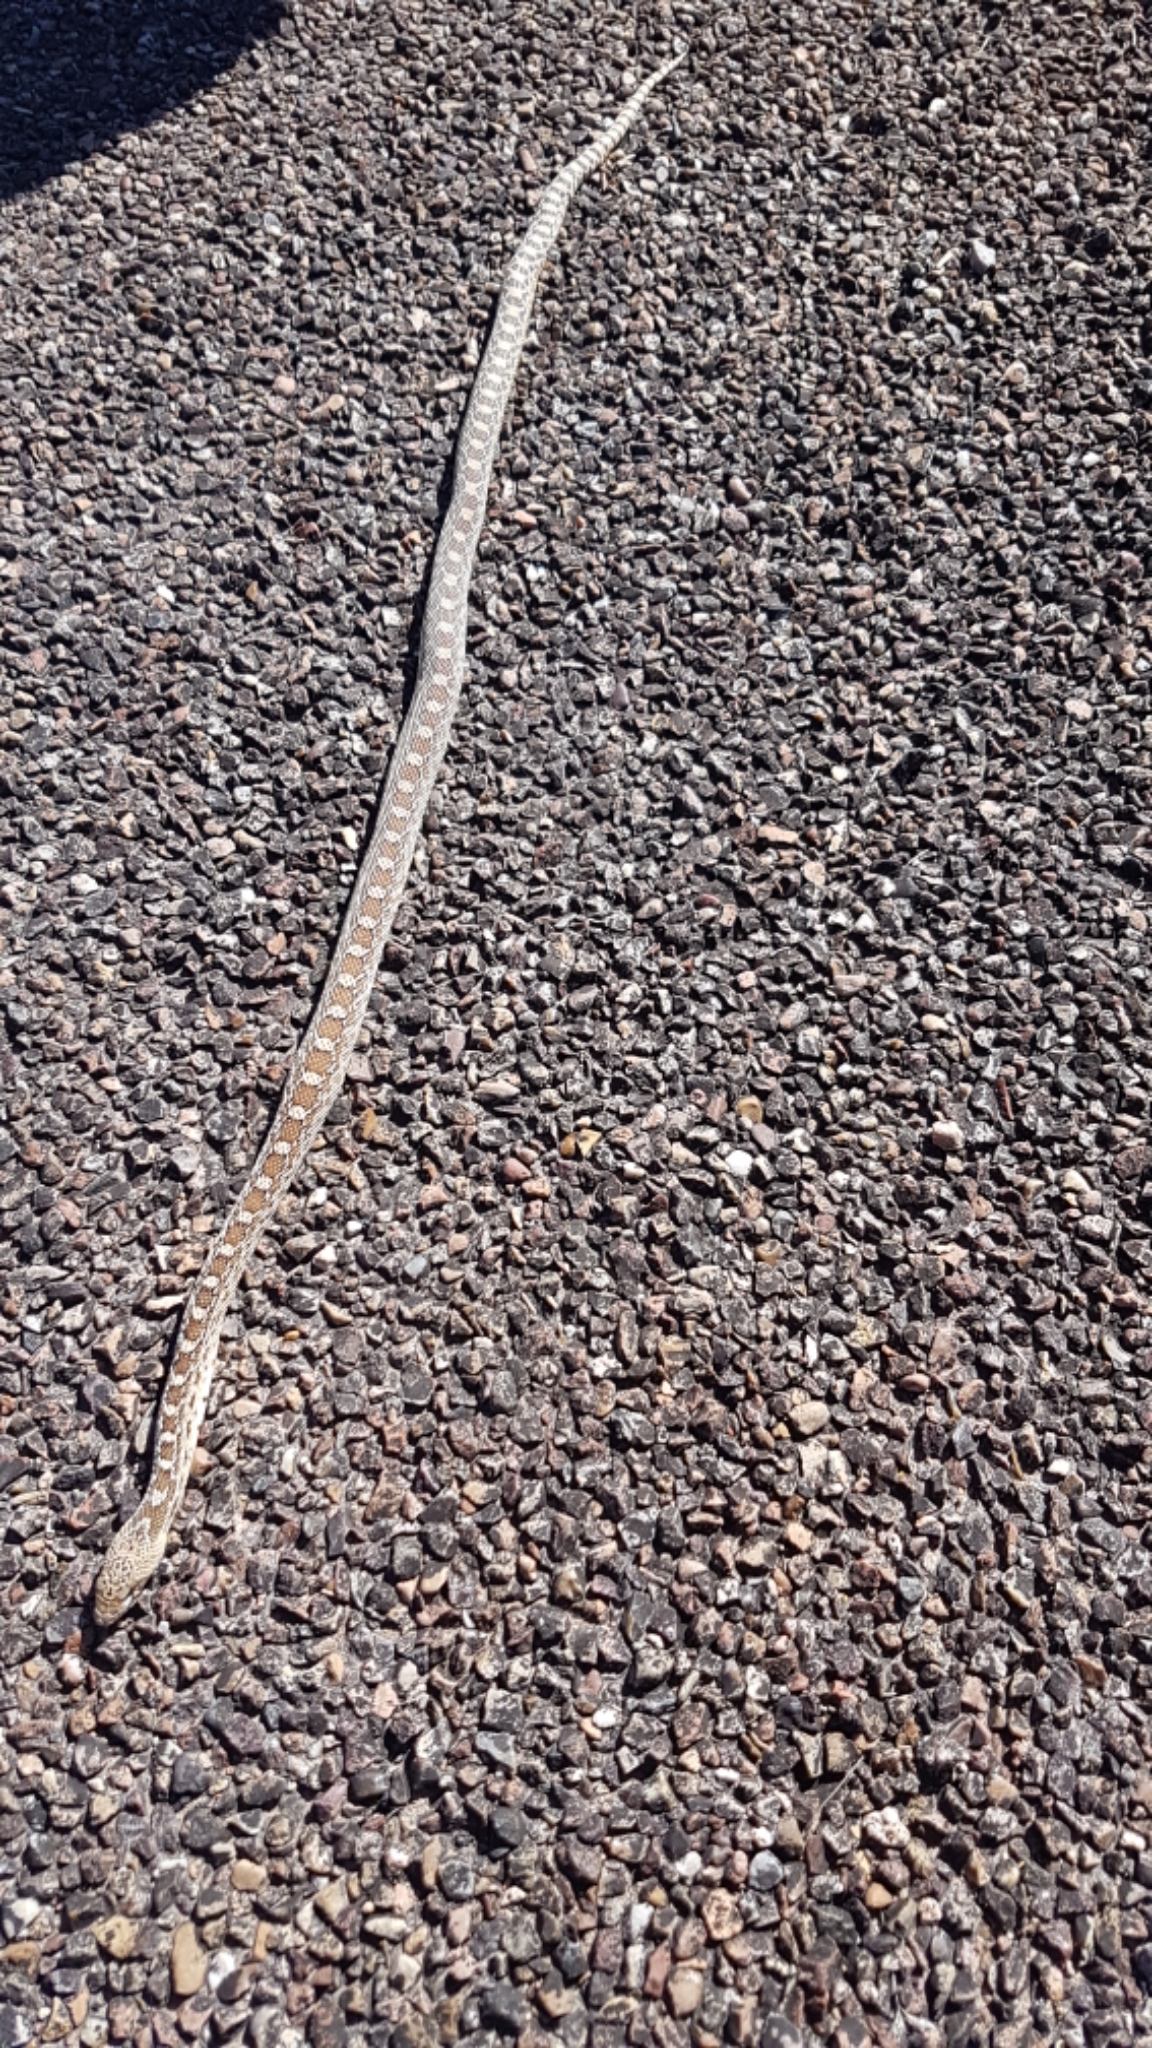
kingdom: Animalia
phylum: Chordata
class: Squamata
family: Colubridae
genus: Pituophis
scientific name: Pituophis catenifer
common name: Gopher snake
